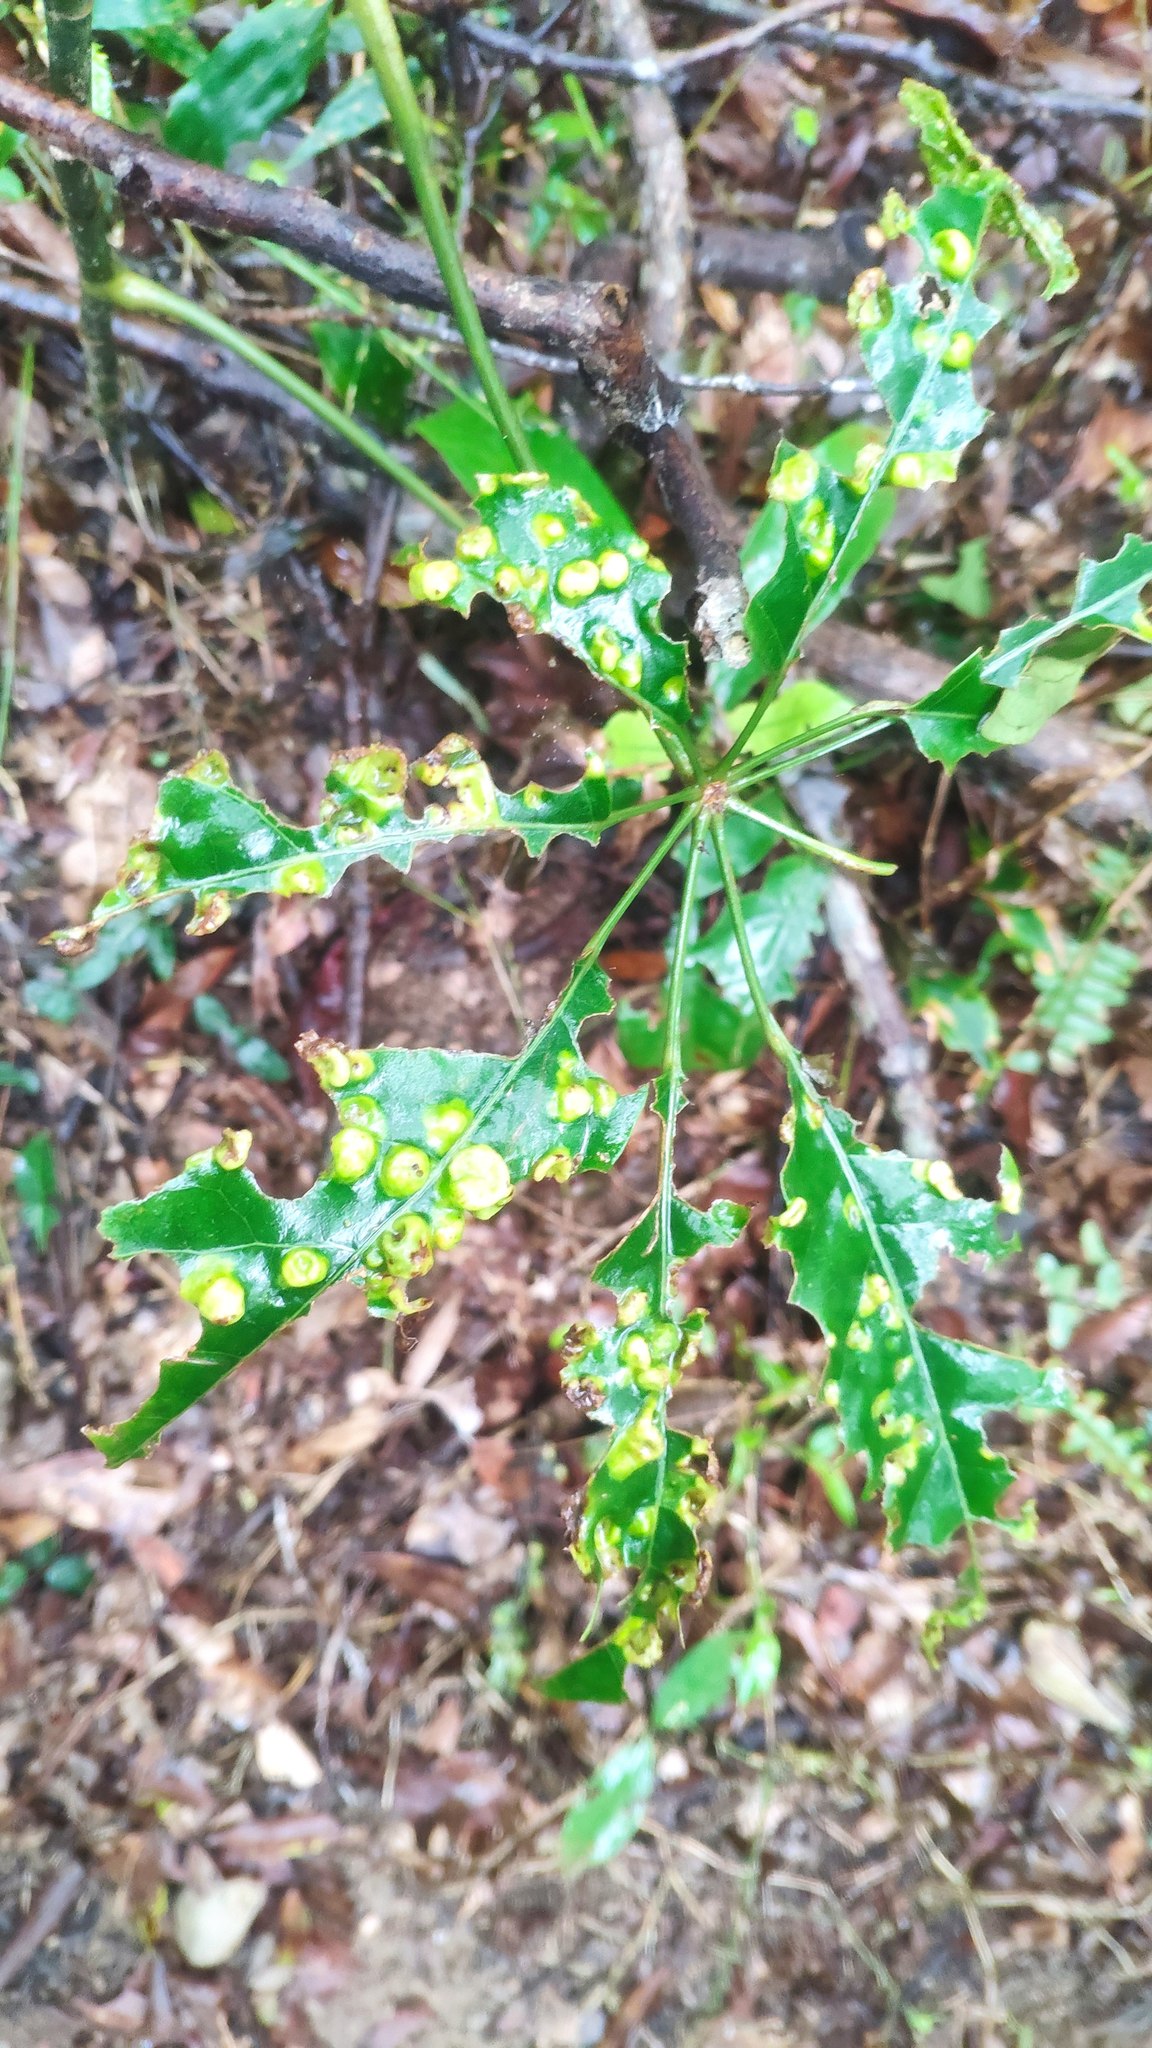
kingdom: Plantae
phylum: Tracheophyta
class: Magnoliopsida
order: Apiales
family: Araliaceae
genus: Heptapleurum
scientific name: Heptapleurum heptaphyllum
